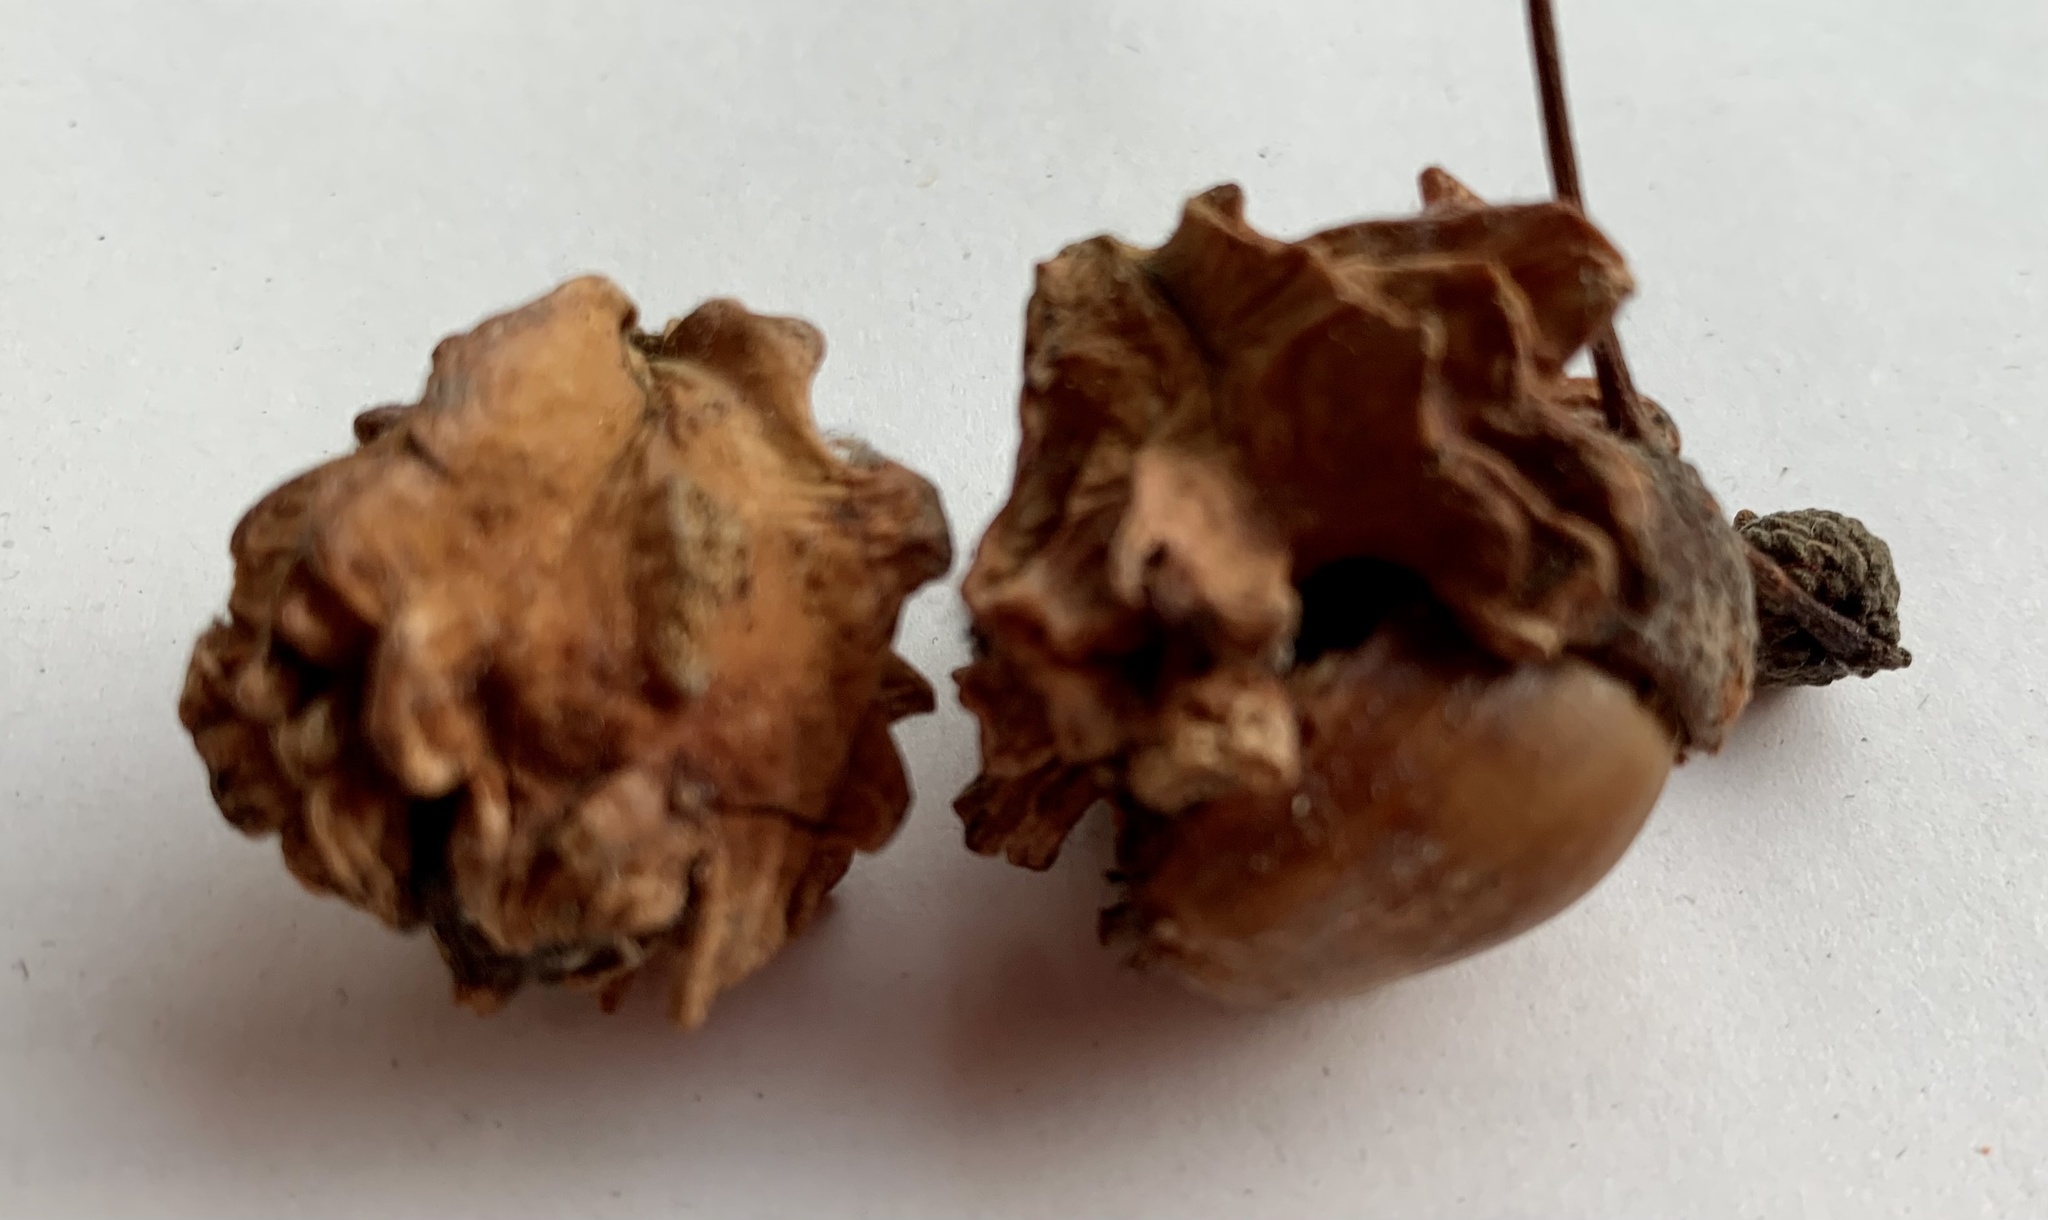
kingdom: Animalia
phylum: Arthropoda
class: Insecta
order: Hymenoptera
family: Cynipidae
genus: Andricus
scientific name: Andricus quercuscalicis
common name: Knopper gall
